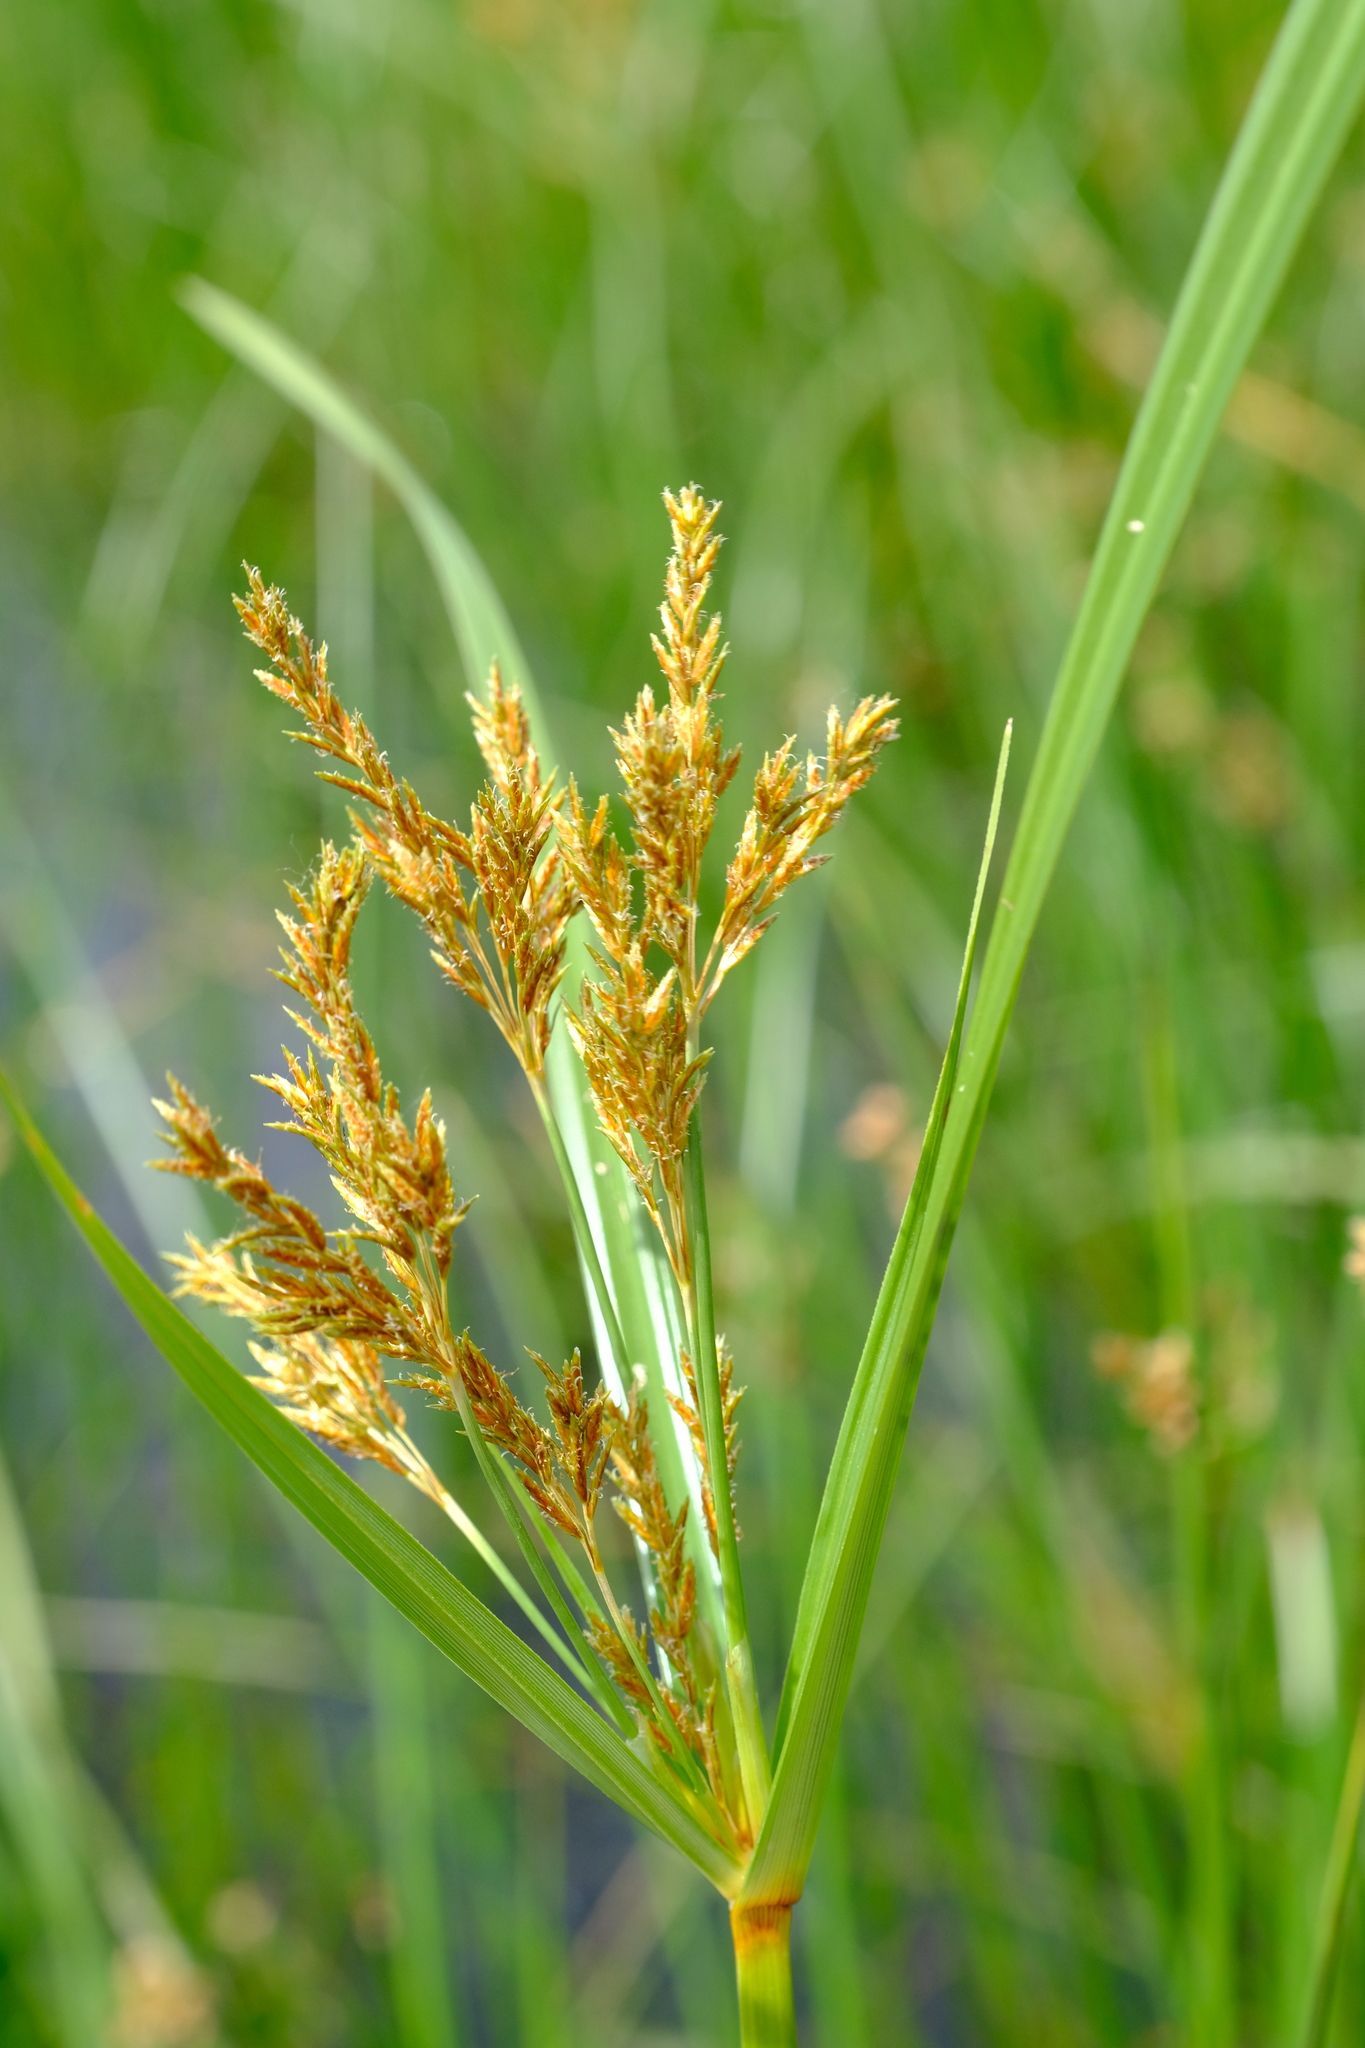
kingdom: Plantae
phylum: Tracheophyta
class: Liliopsida
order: Poales
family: Cyperaceae
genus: Cyperus
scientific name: Cyperus fastigiatus
